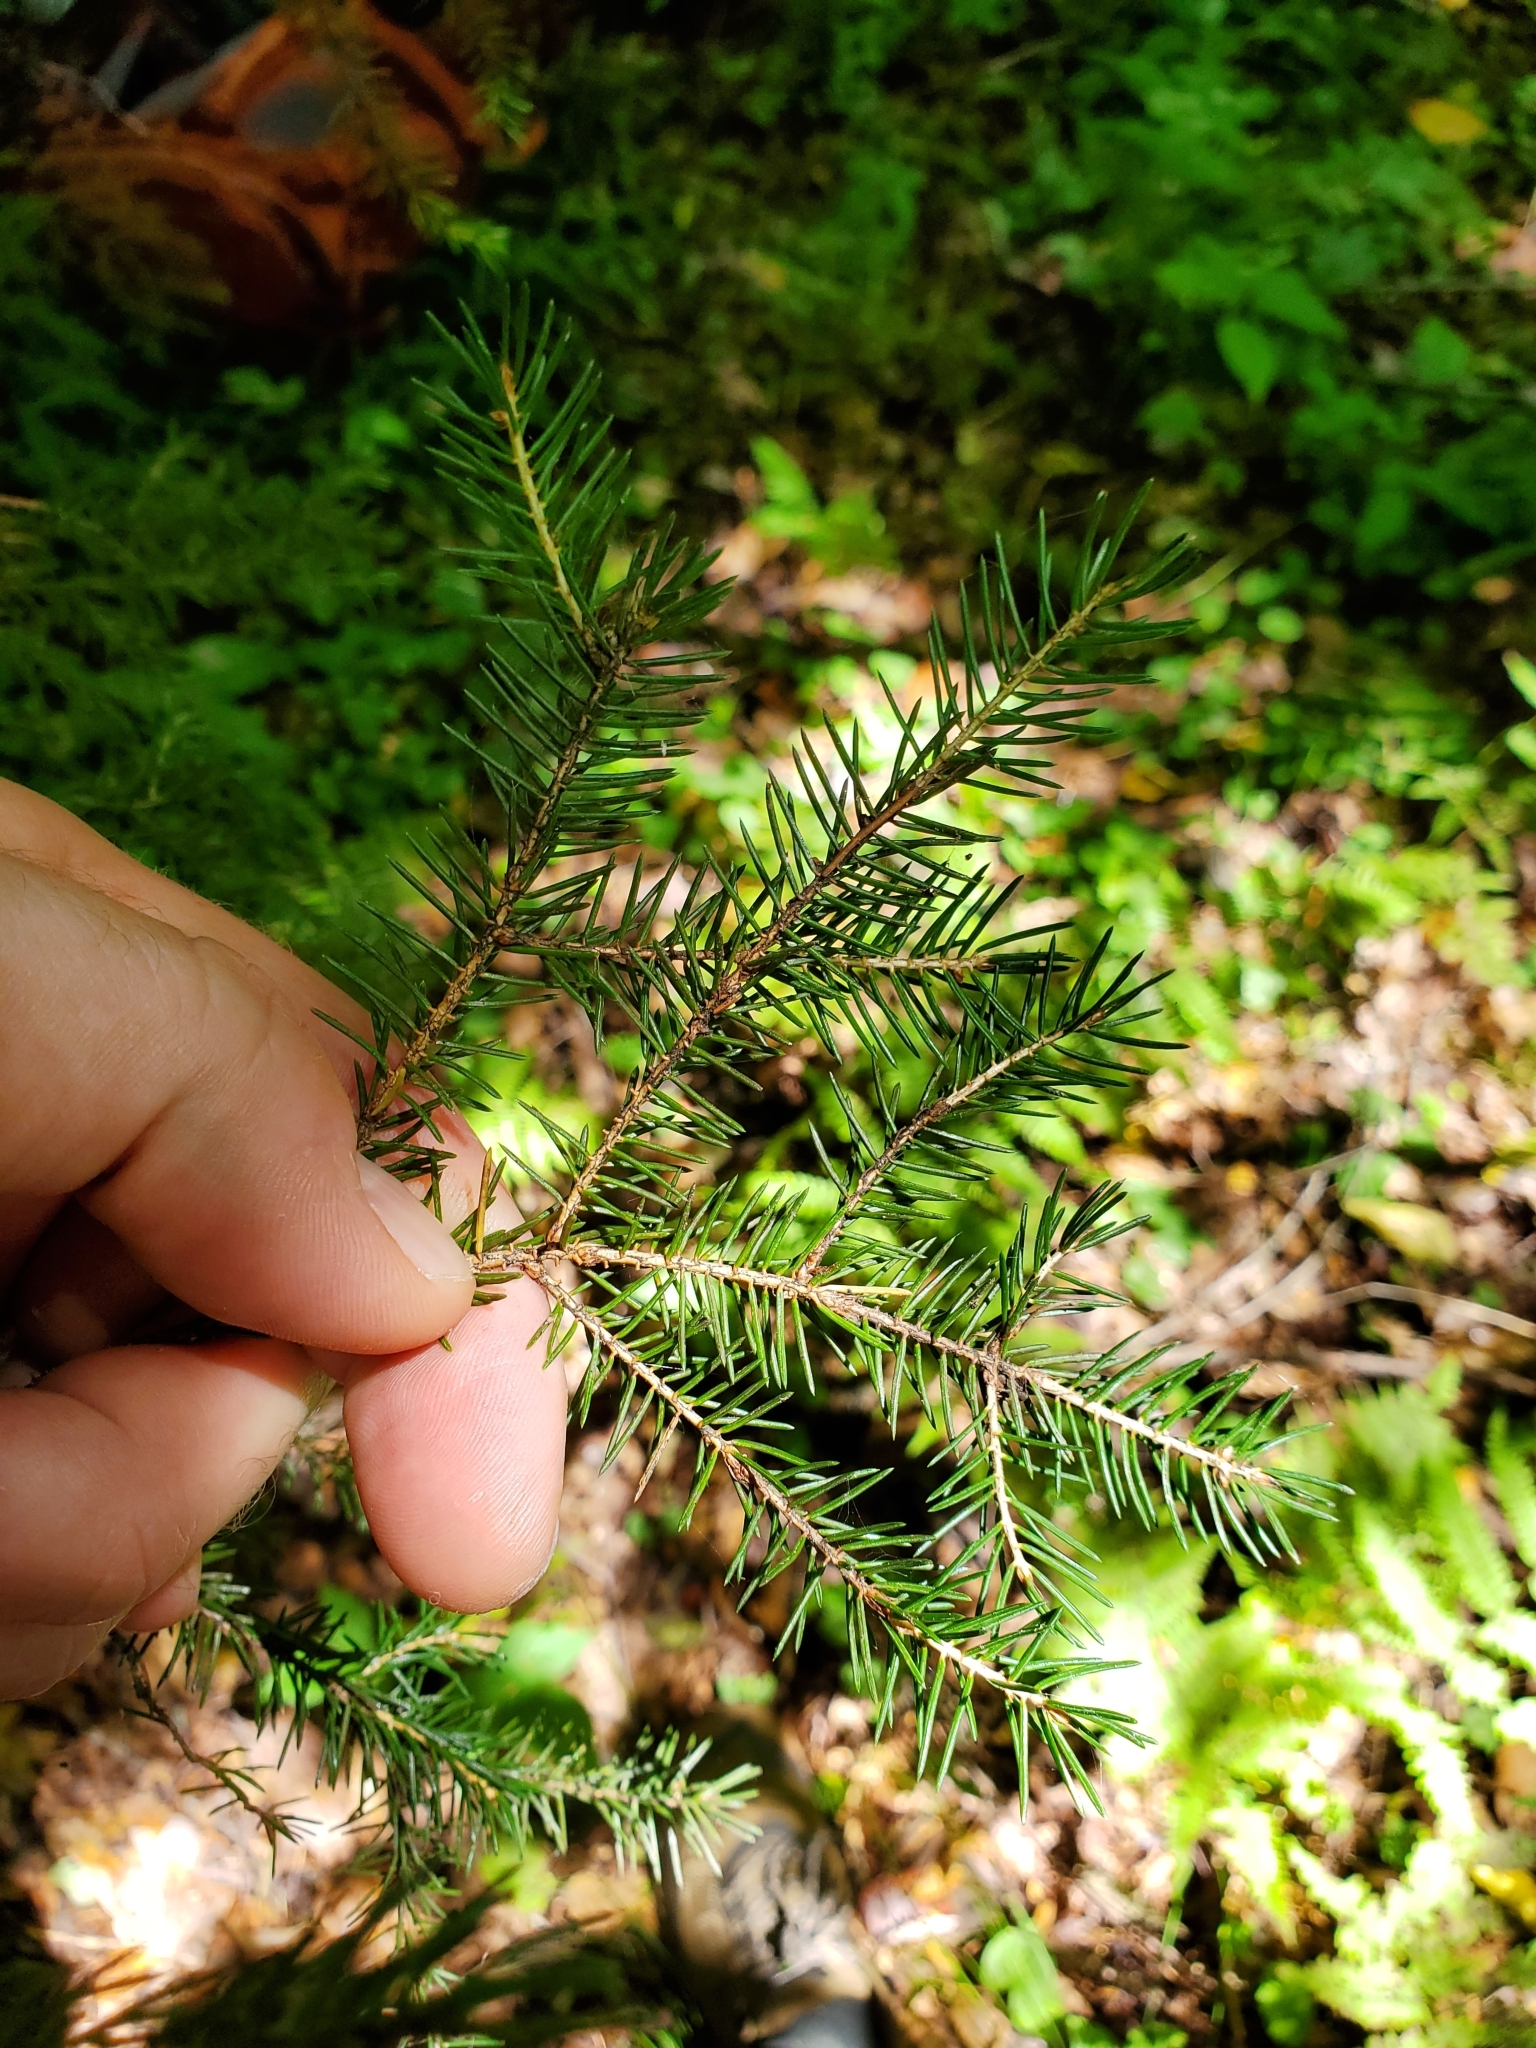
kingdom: Plantae
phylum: Tracheophyta
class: Pinopsida
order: Pinales
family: Pinaceae
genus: Picea
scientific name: Picea rubens
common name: Red spruce
